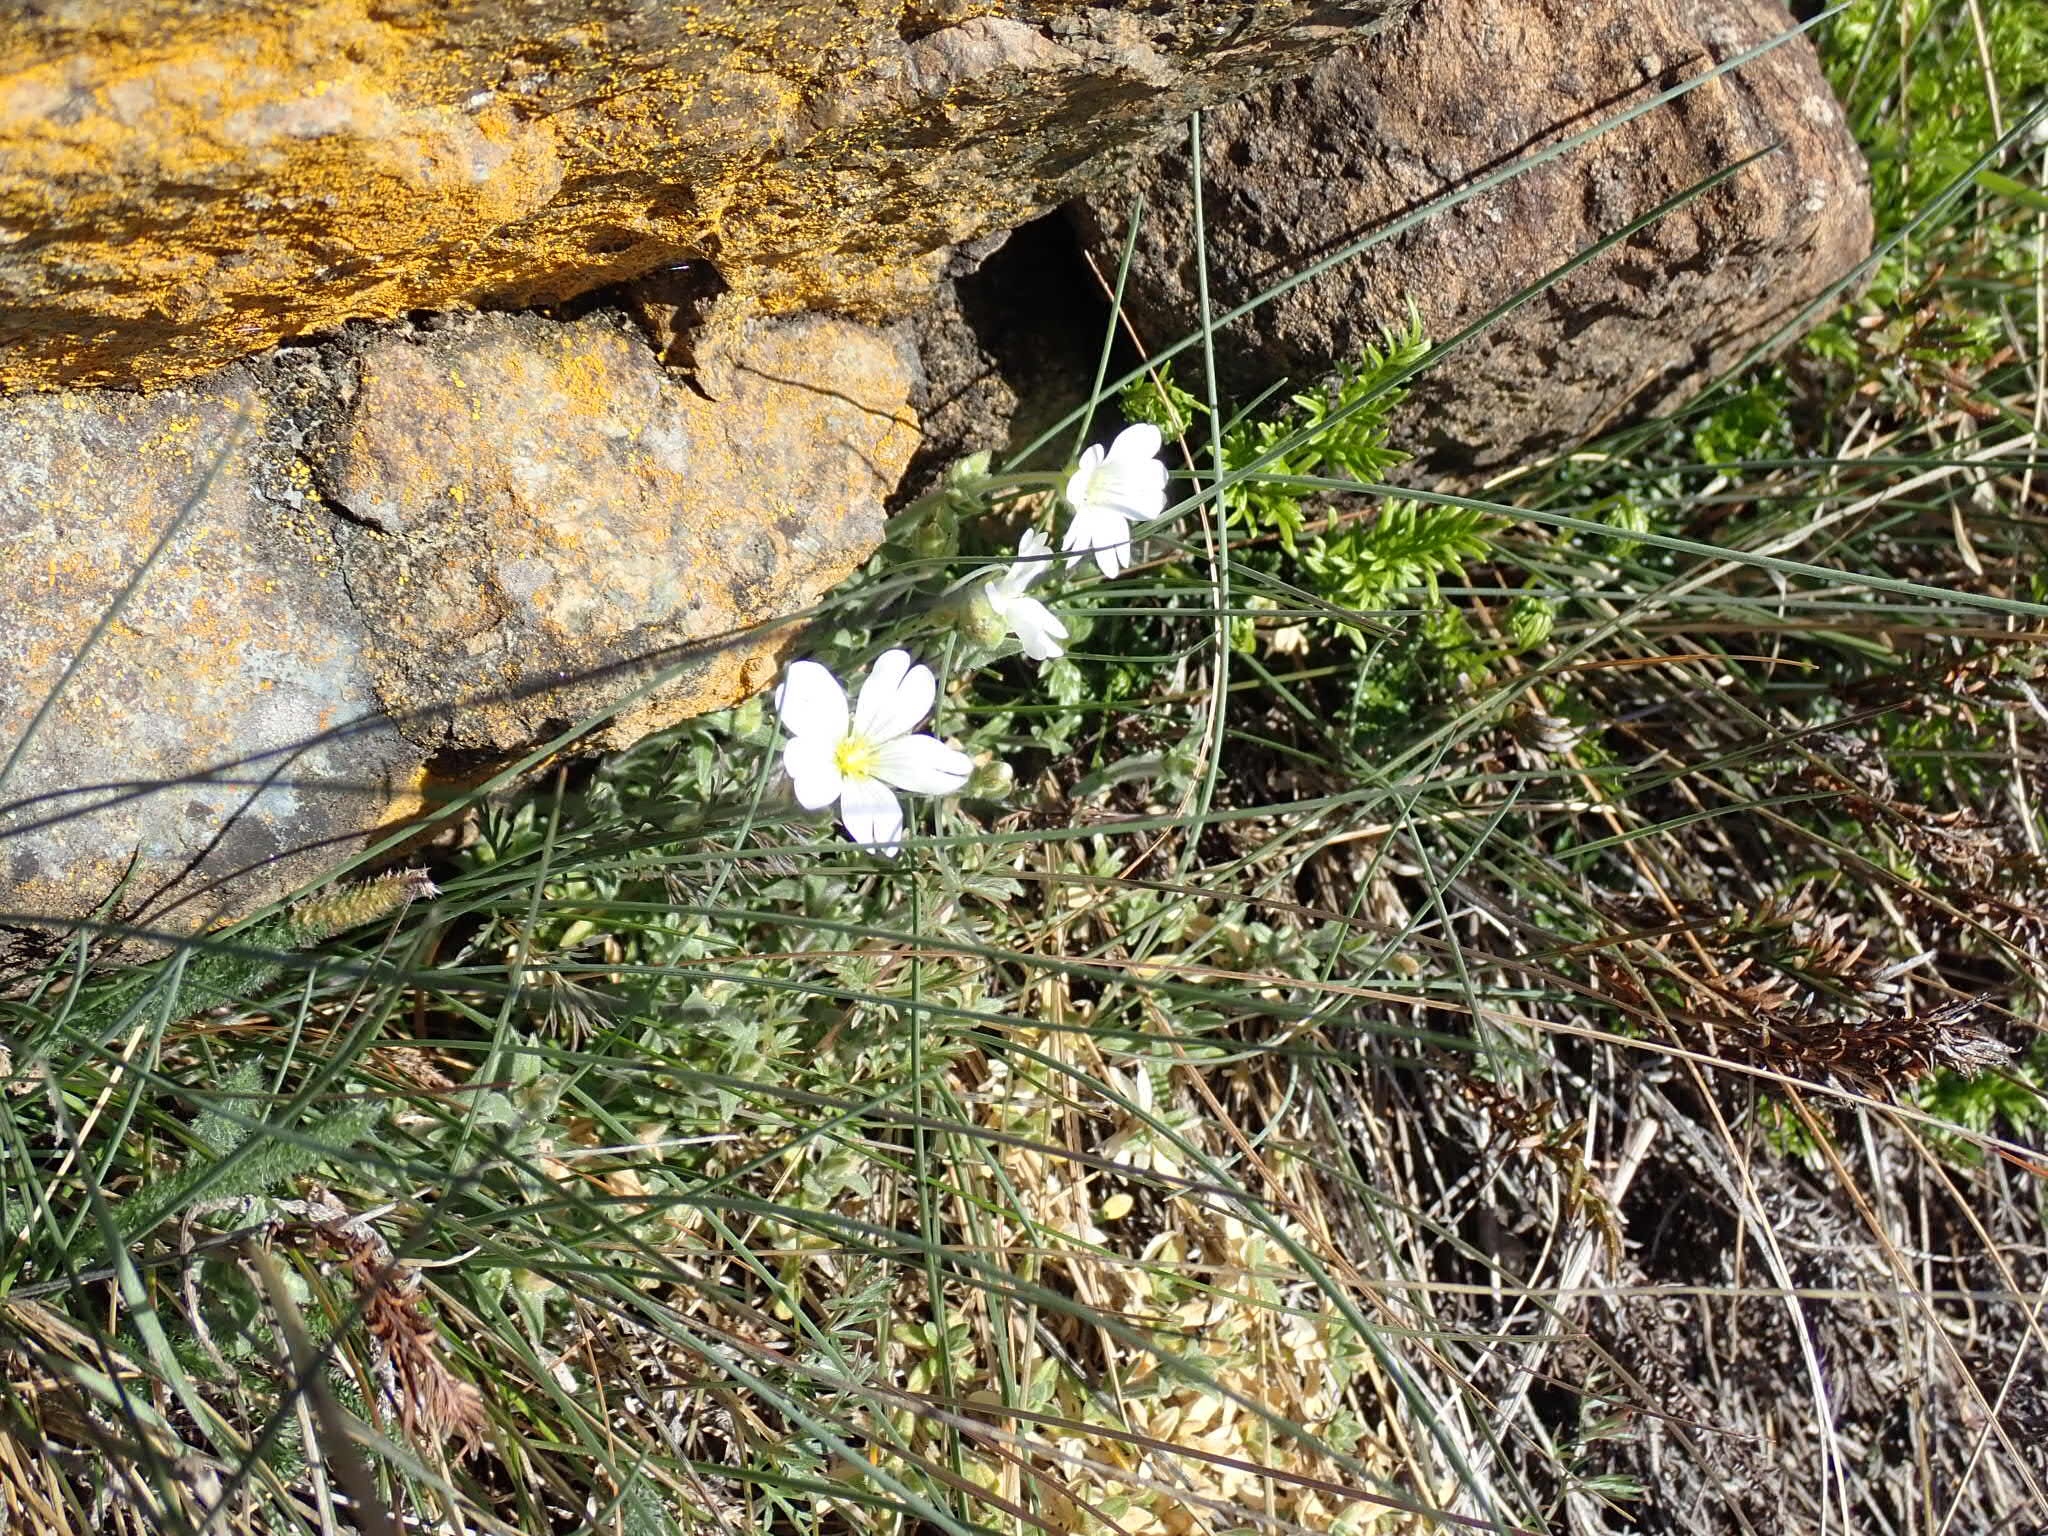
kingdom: Plantae
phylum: Tracheophyta
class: Magnoliopsida
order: Caryophyllales
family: Caryophyllaceae
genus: Cerastium
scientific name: Cerastium arvense
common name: Field mouse-ear
